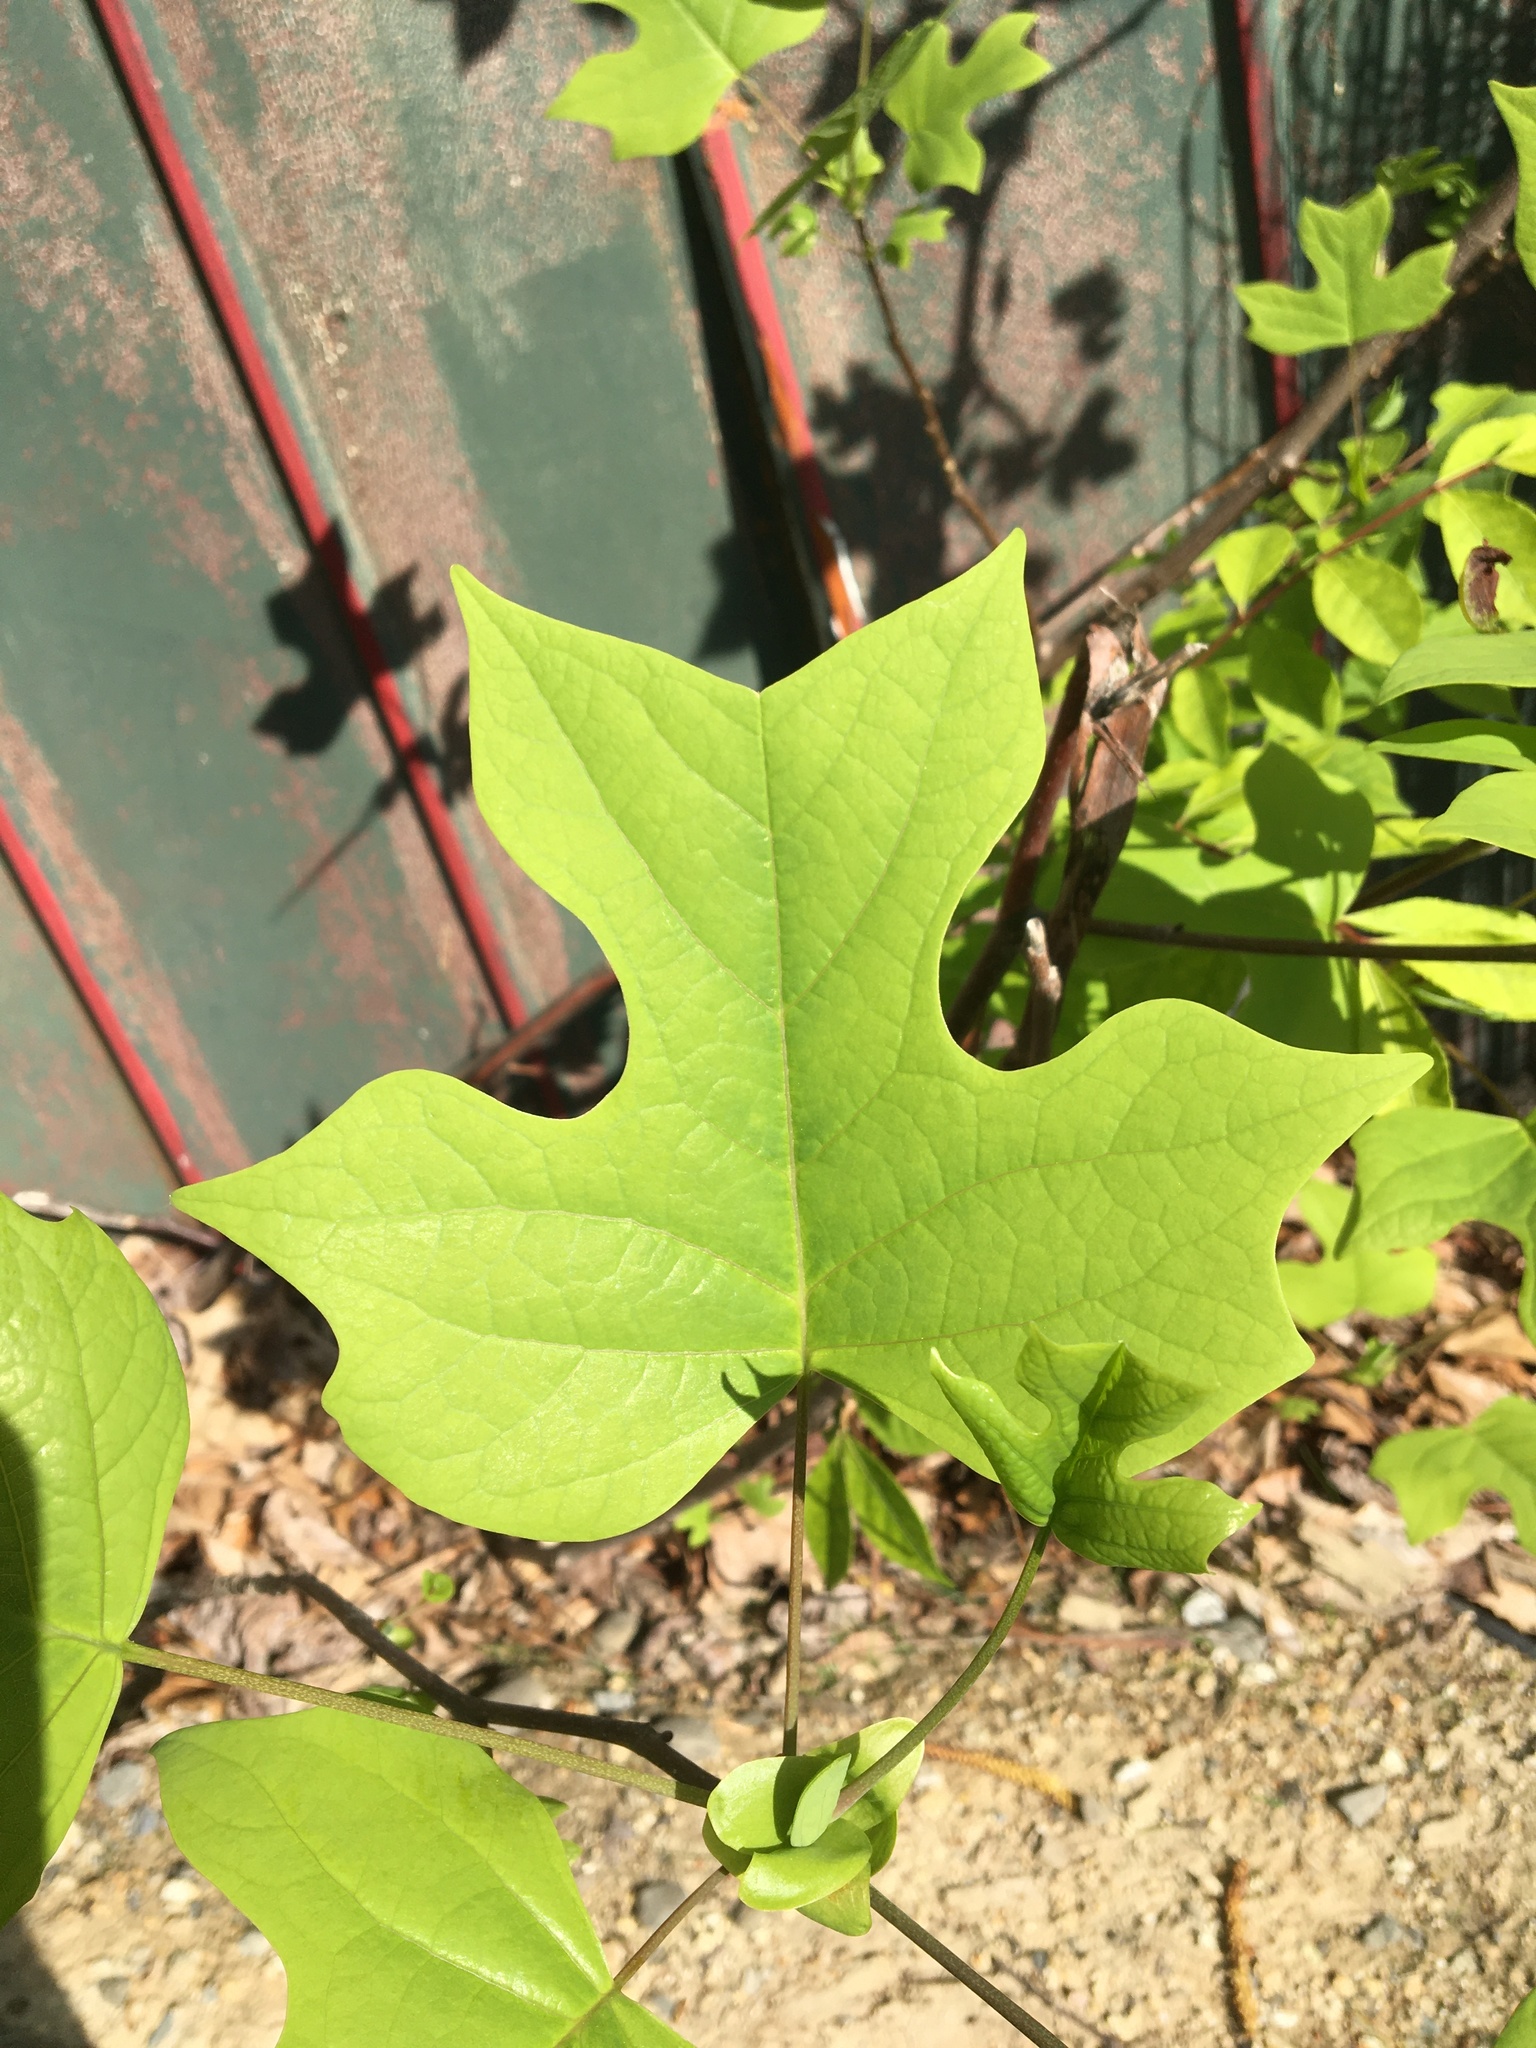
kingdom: Plantae
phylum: Tracheophyta
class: Magnoliopsida
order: Magnoliales
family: Magnoliaceae
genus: Liriodendron
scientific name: Liriodendron tulipifera
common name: Tulip tree
